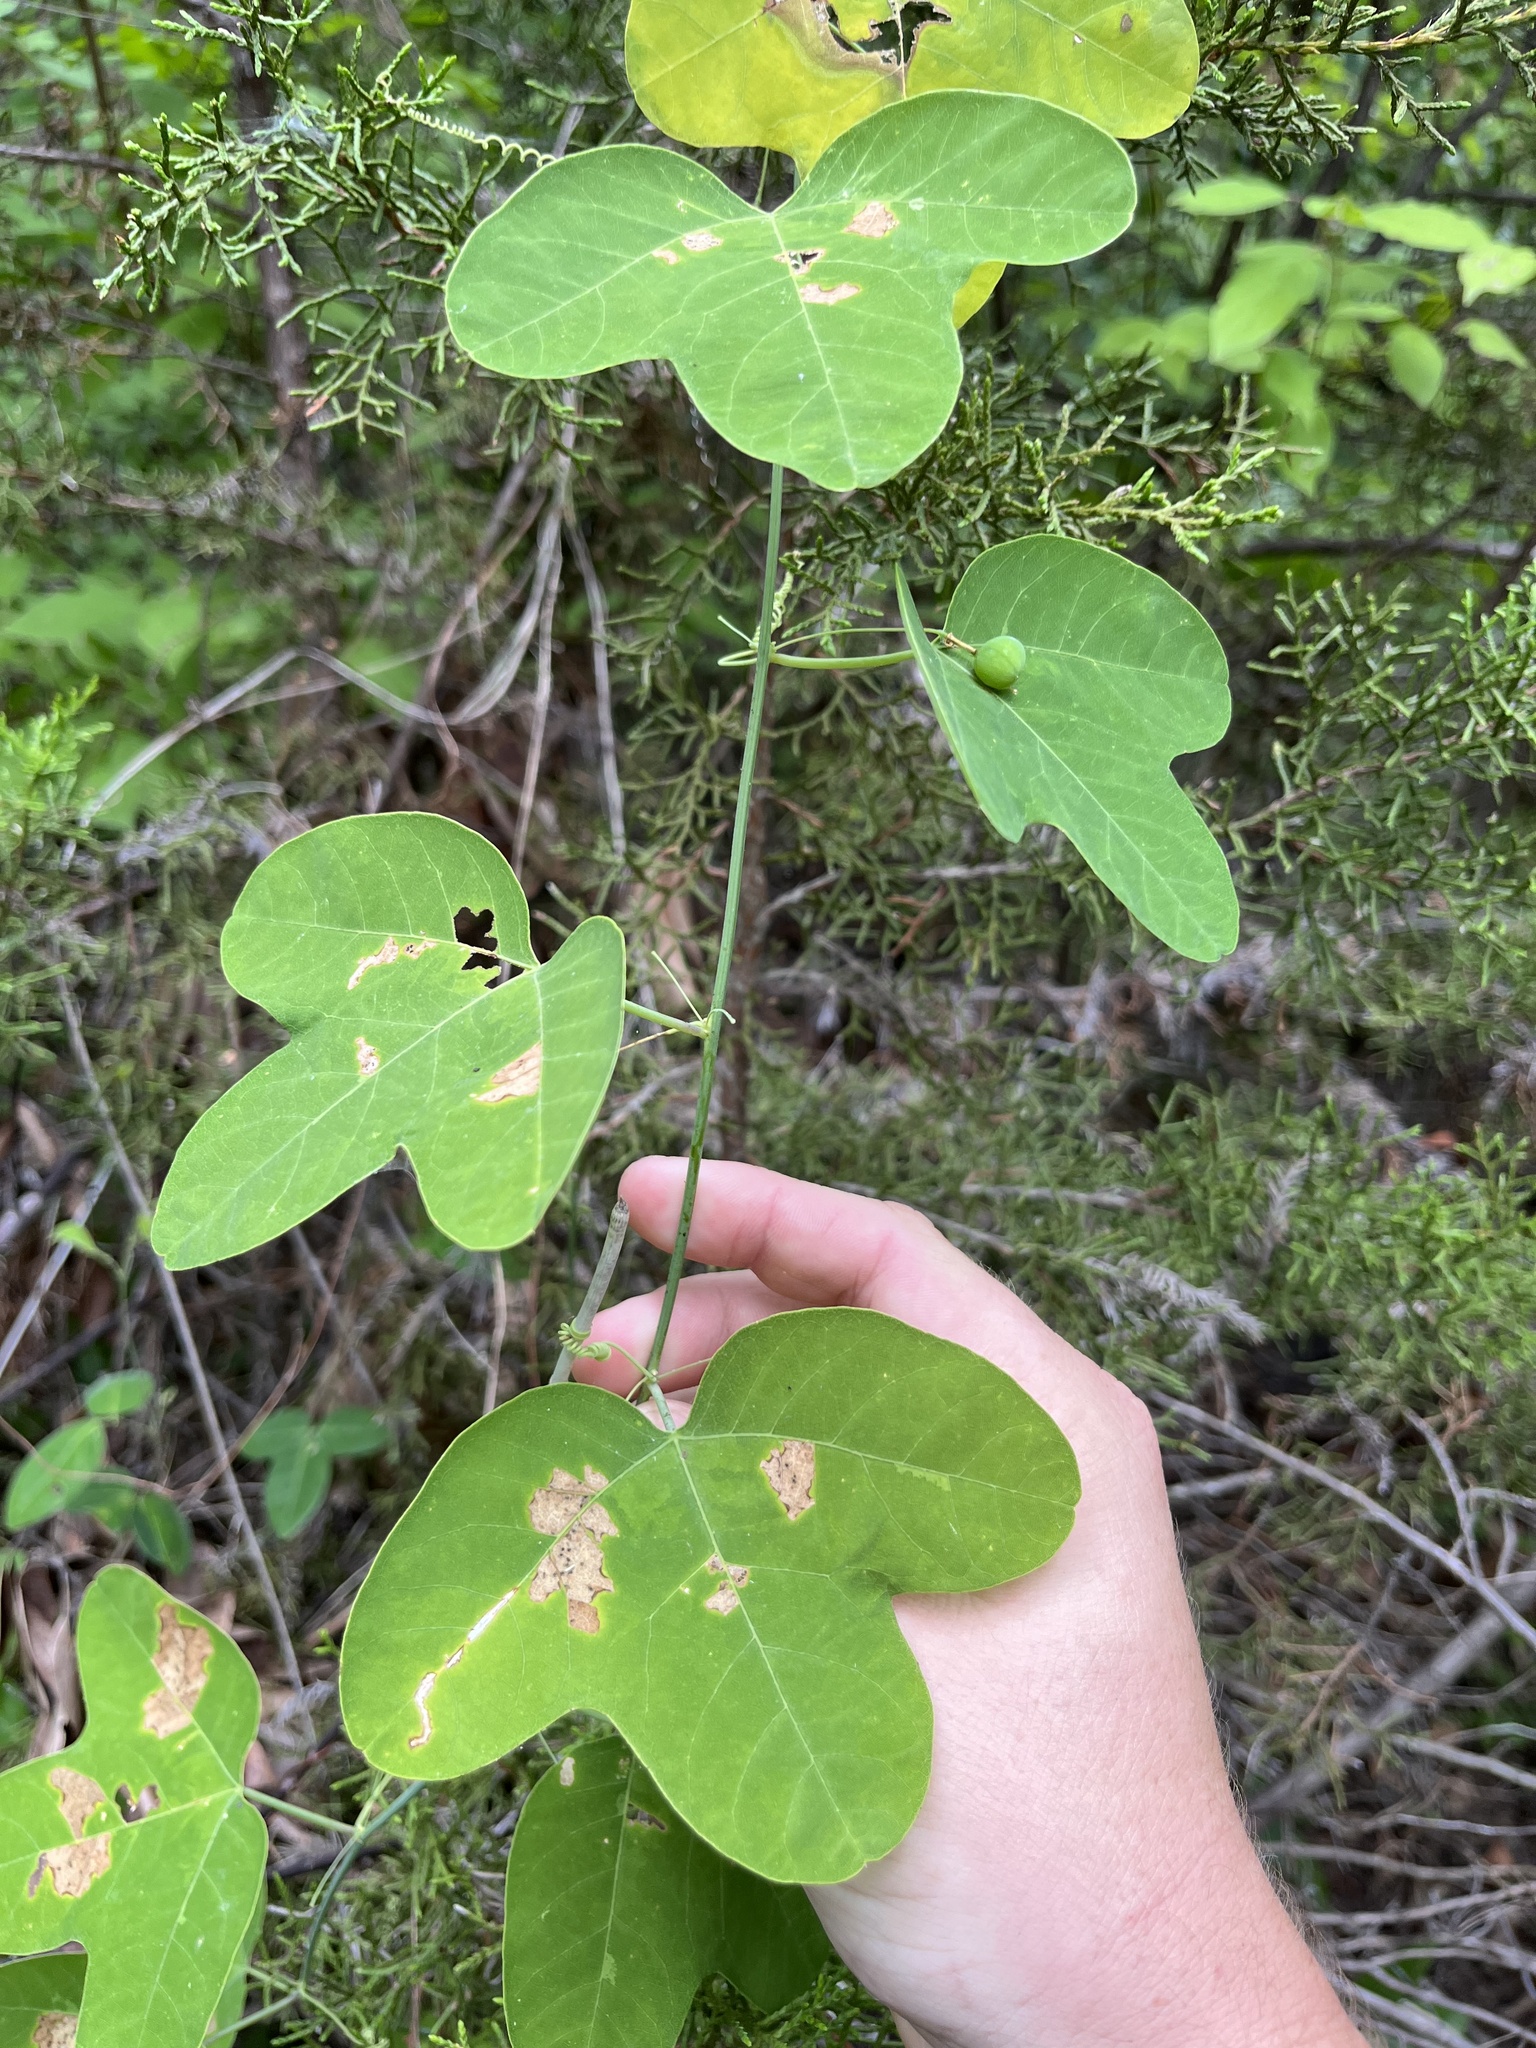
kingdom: Plantae
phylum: Tracheophyta
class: Magnoliopsida
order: Malpighiales
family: Passifloraceae
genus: Passiflora
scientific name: Passiflora affinis
